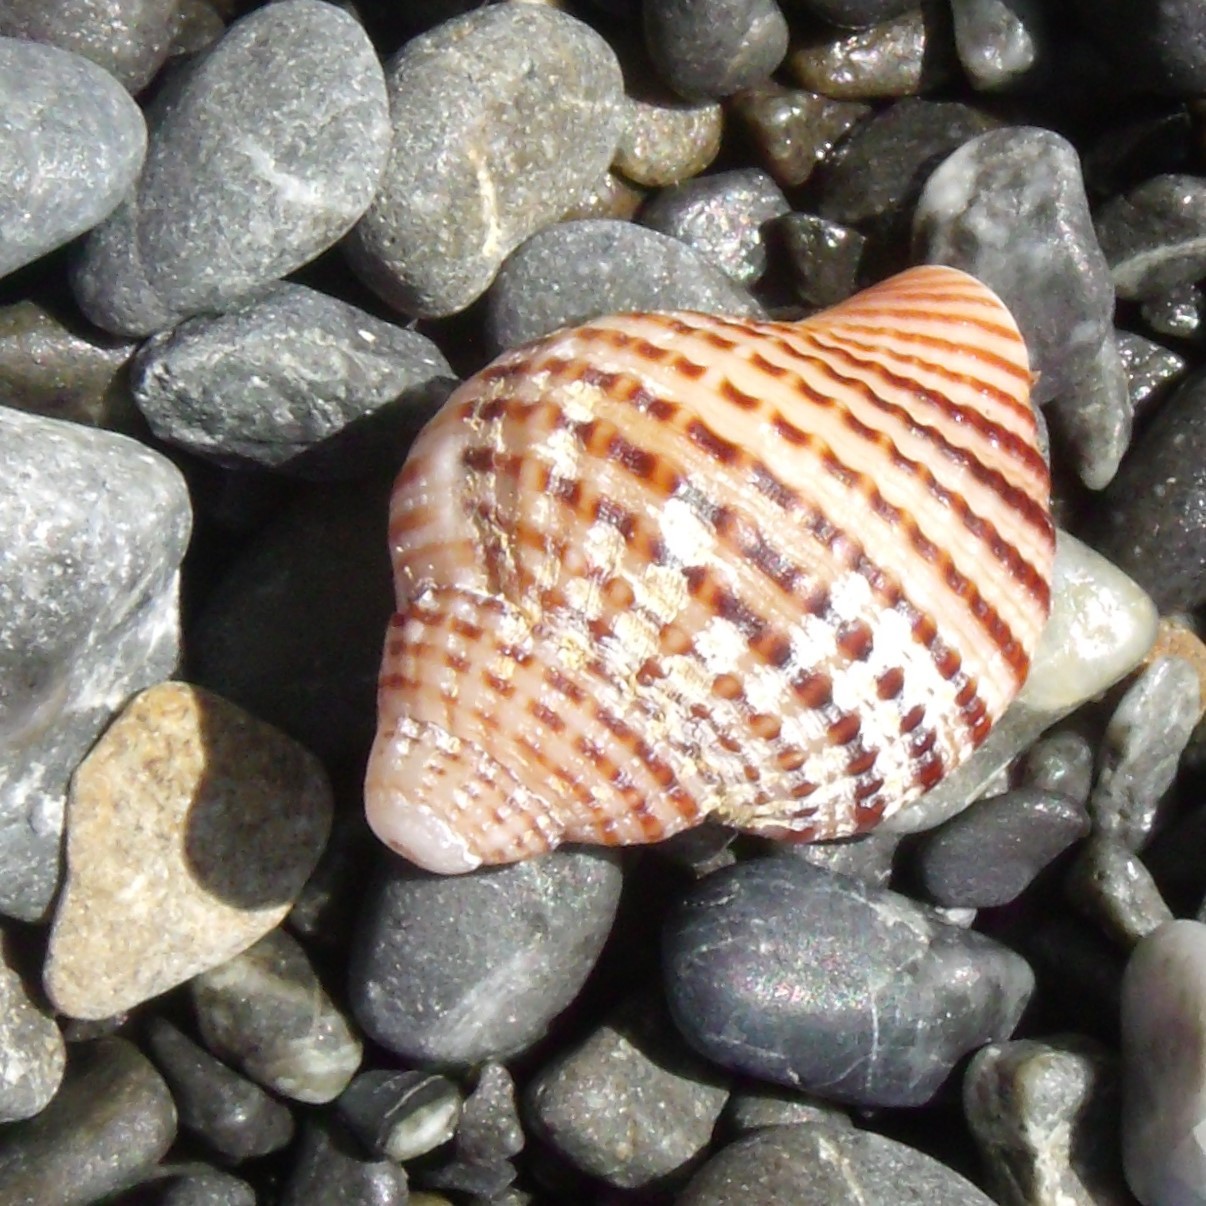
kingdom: Animalia
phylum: Mollusca
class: Gastropoda
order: Littorinimorpha
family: Cymatiidae
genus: Argobuccinum
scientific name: Argobuccinum pustulosum
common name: Pustular triton
